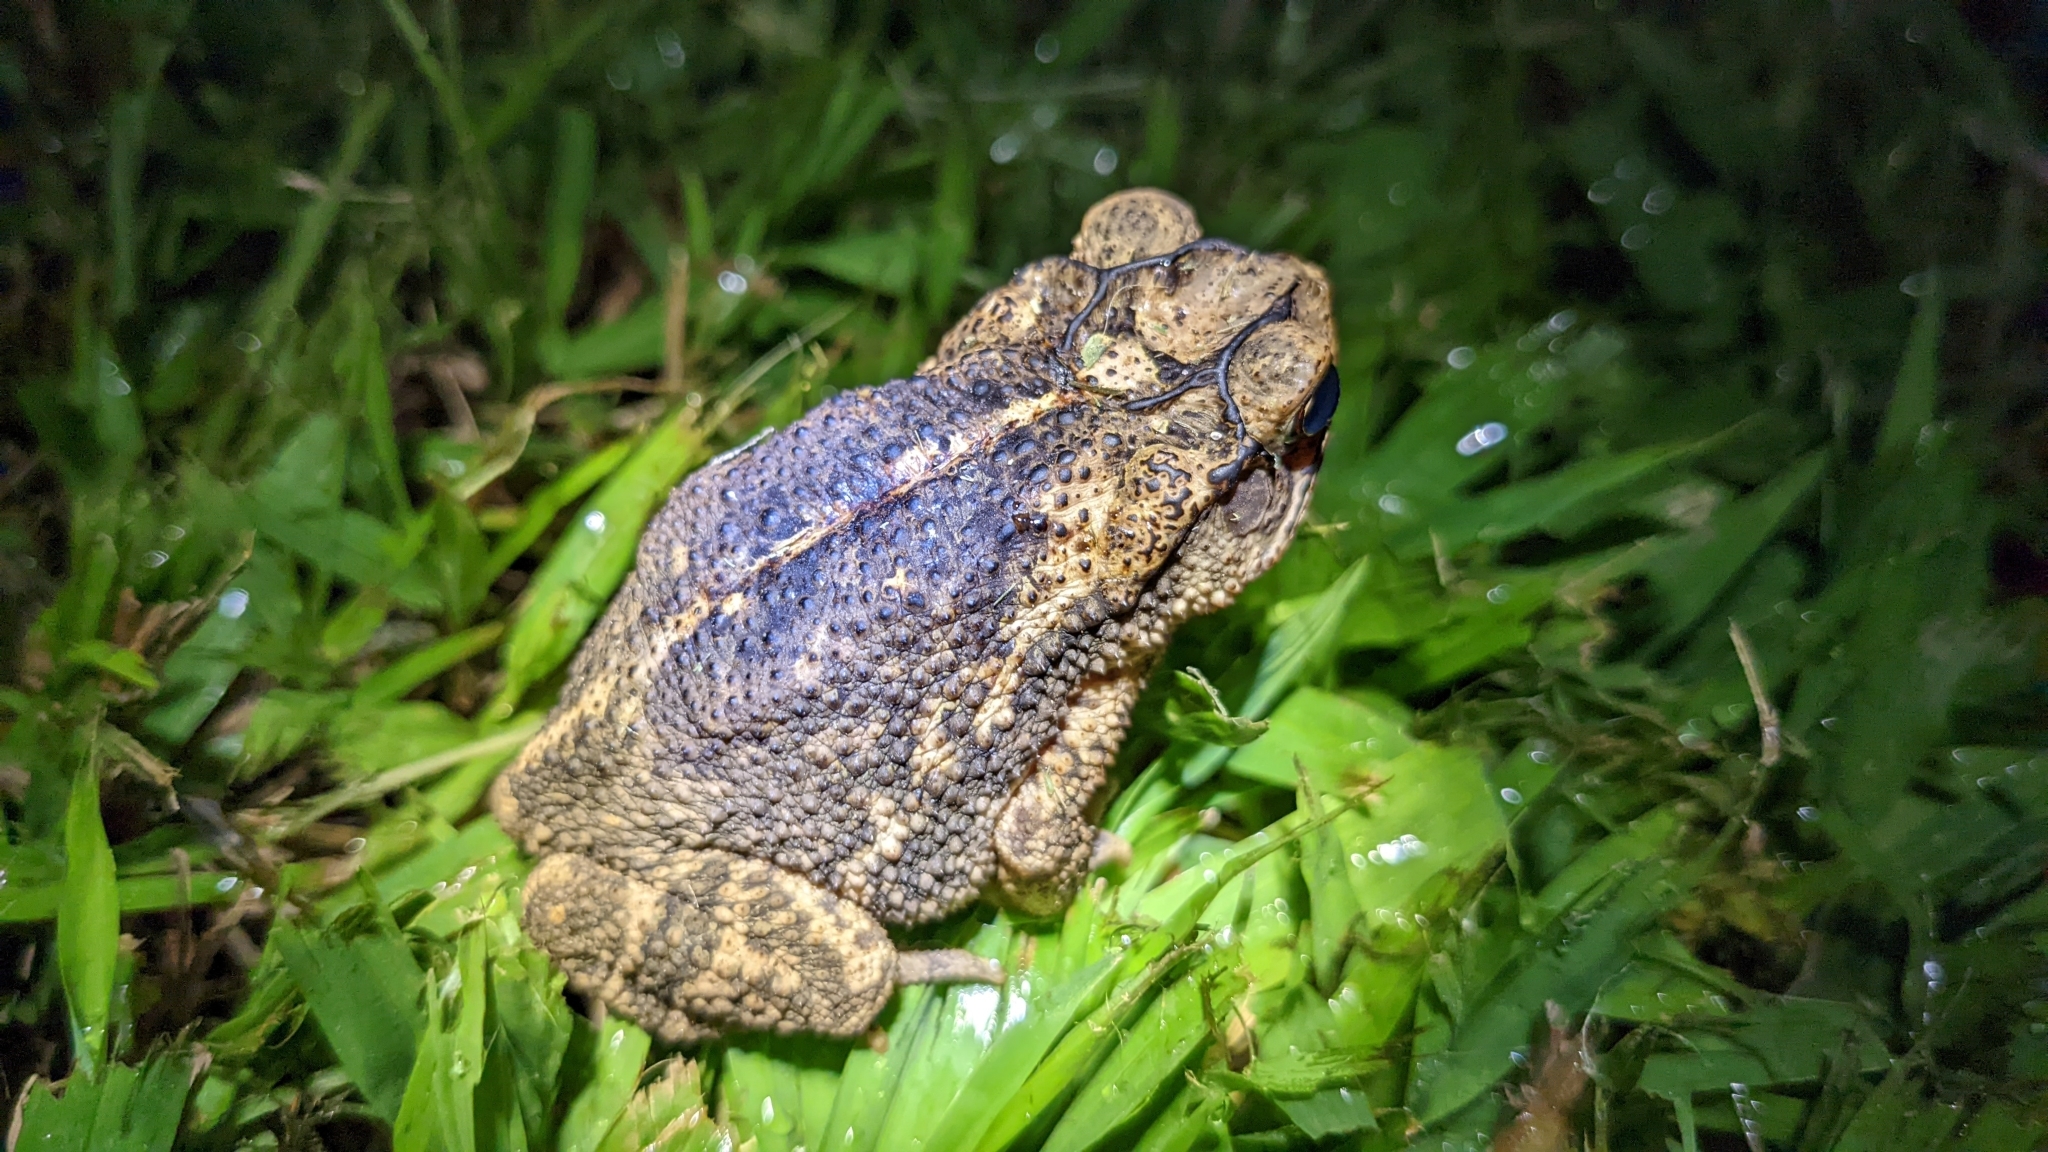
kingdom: Animalia
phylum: Chordata
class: Amphibia
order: Anura
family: Bufonidae
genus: Incilius
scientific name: Incilius nebulifer
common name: Gulf coast toad
